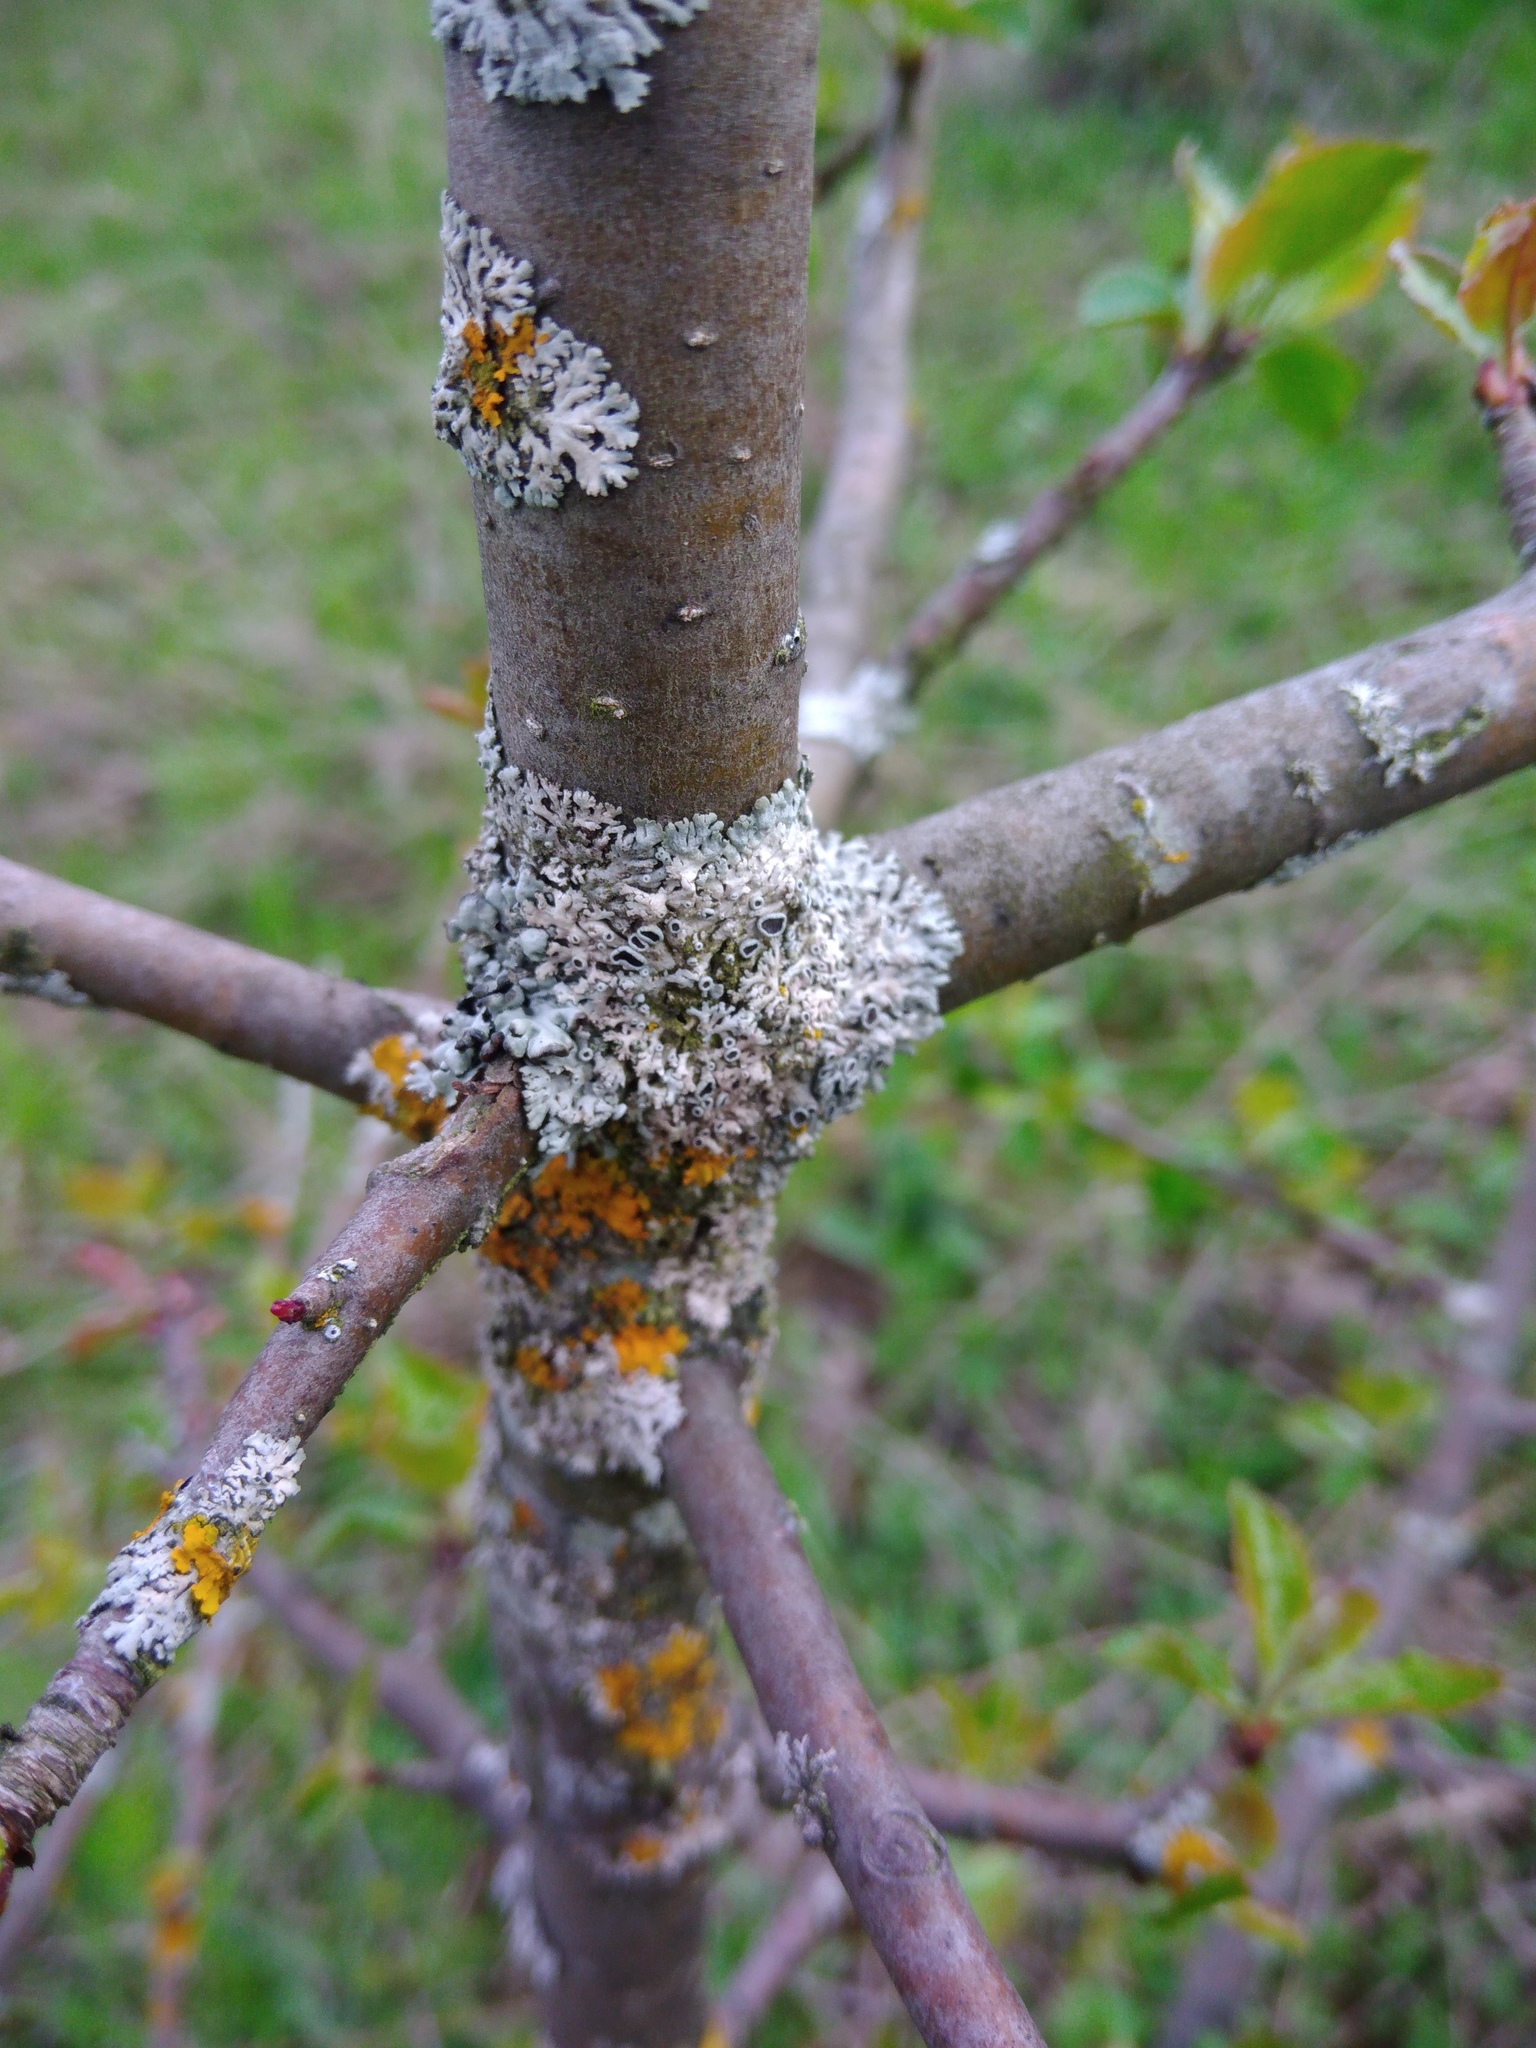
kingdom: Fungi
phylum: Ascomycota
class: Lecanoromycetes
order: Caliciales
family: Physciaceae
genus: Physcia
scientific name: Physcia stellaris
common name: Star rosette lichen
